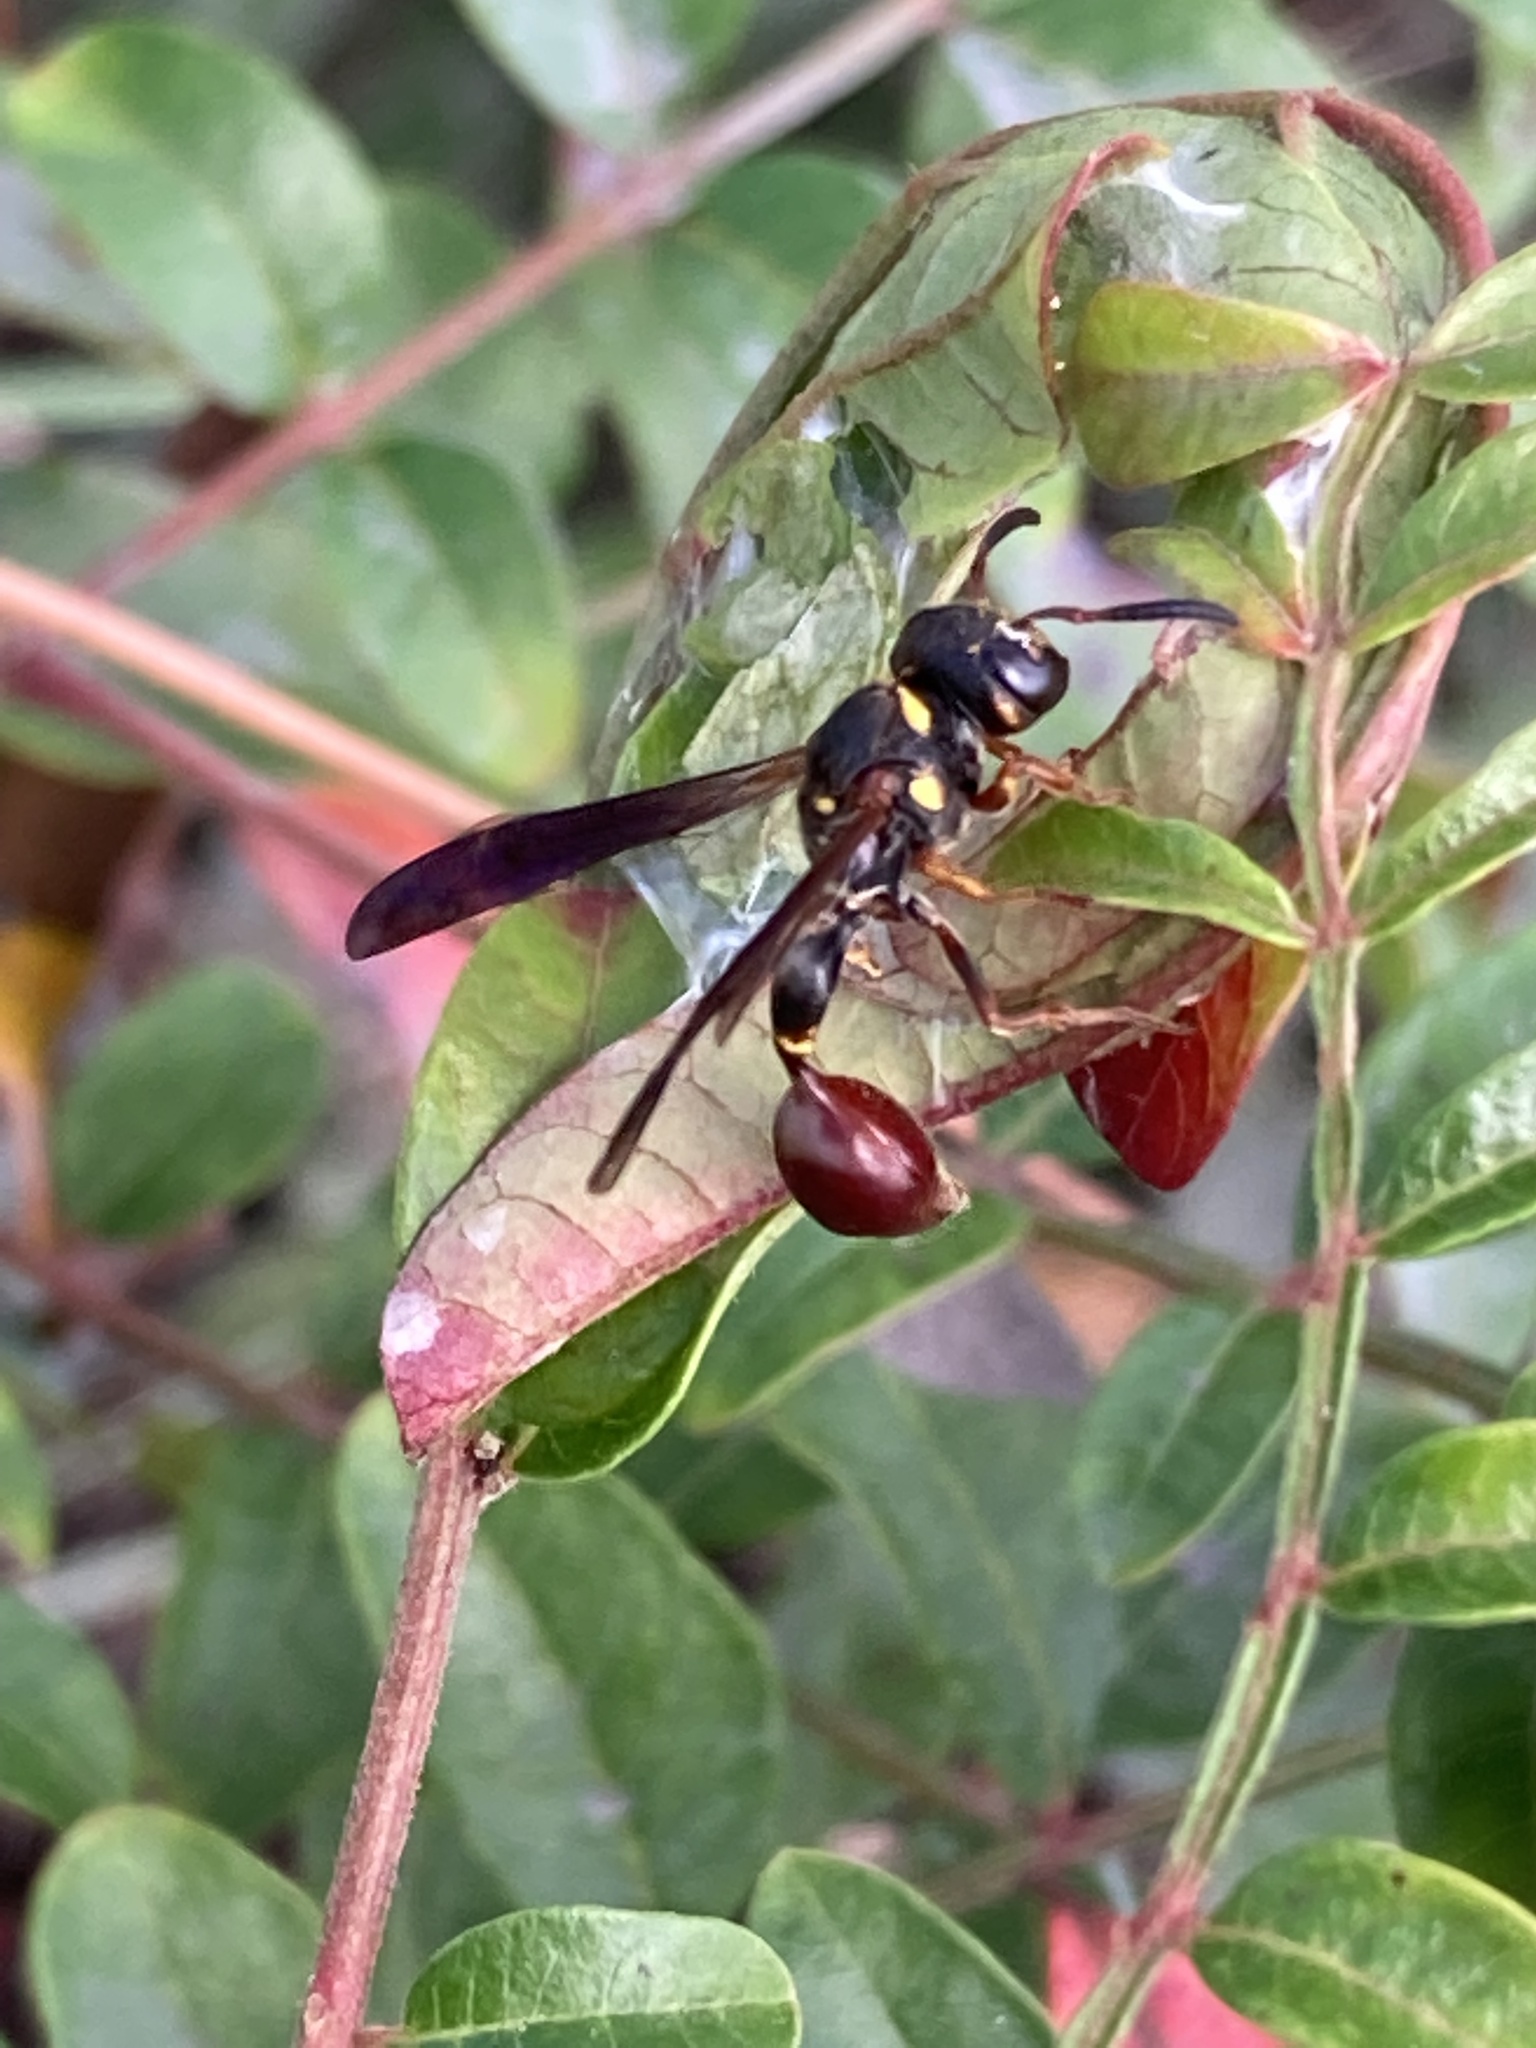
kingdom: Animalia
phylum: Arthropoda
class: Insecta
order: Hymenoptera
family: Eumenidae
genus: Zethus
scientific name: Zethus slossonae
